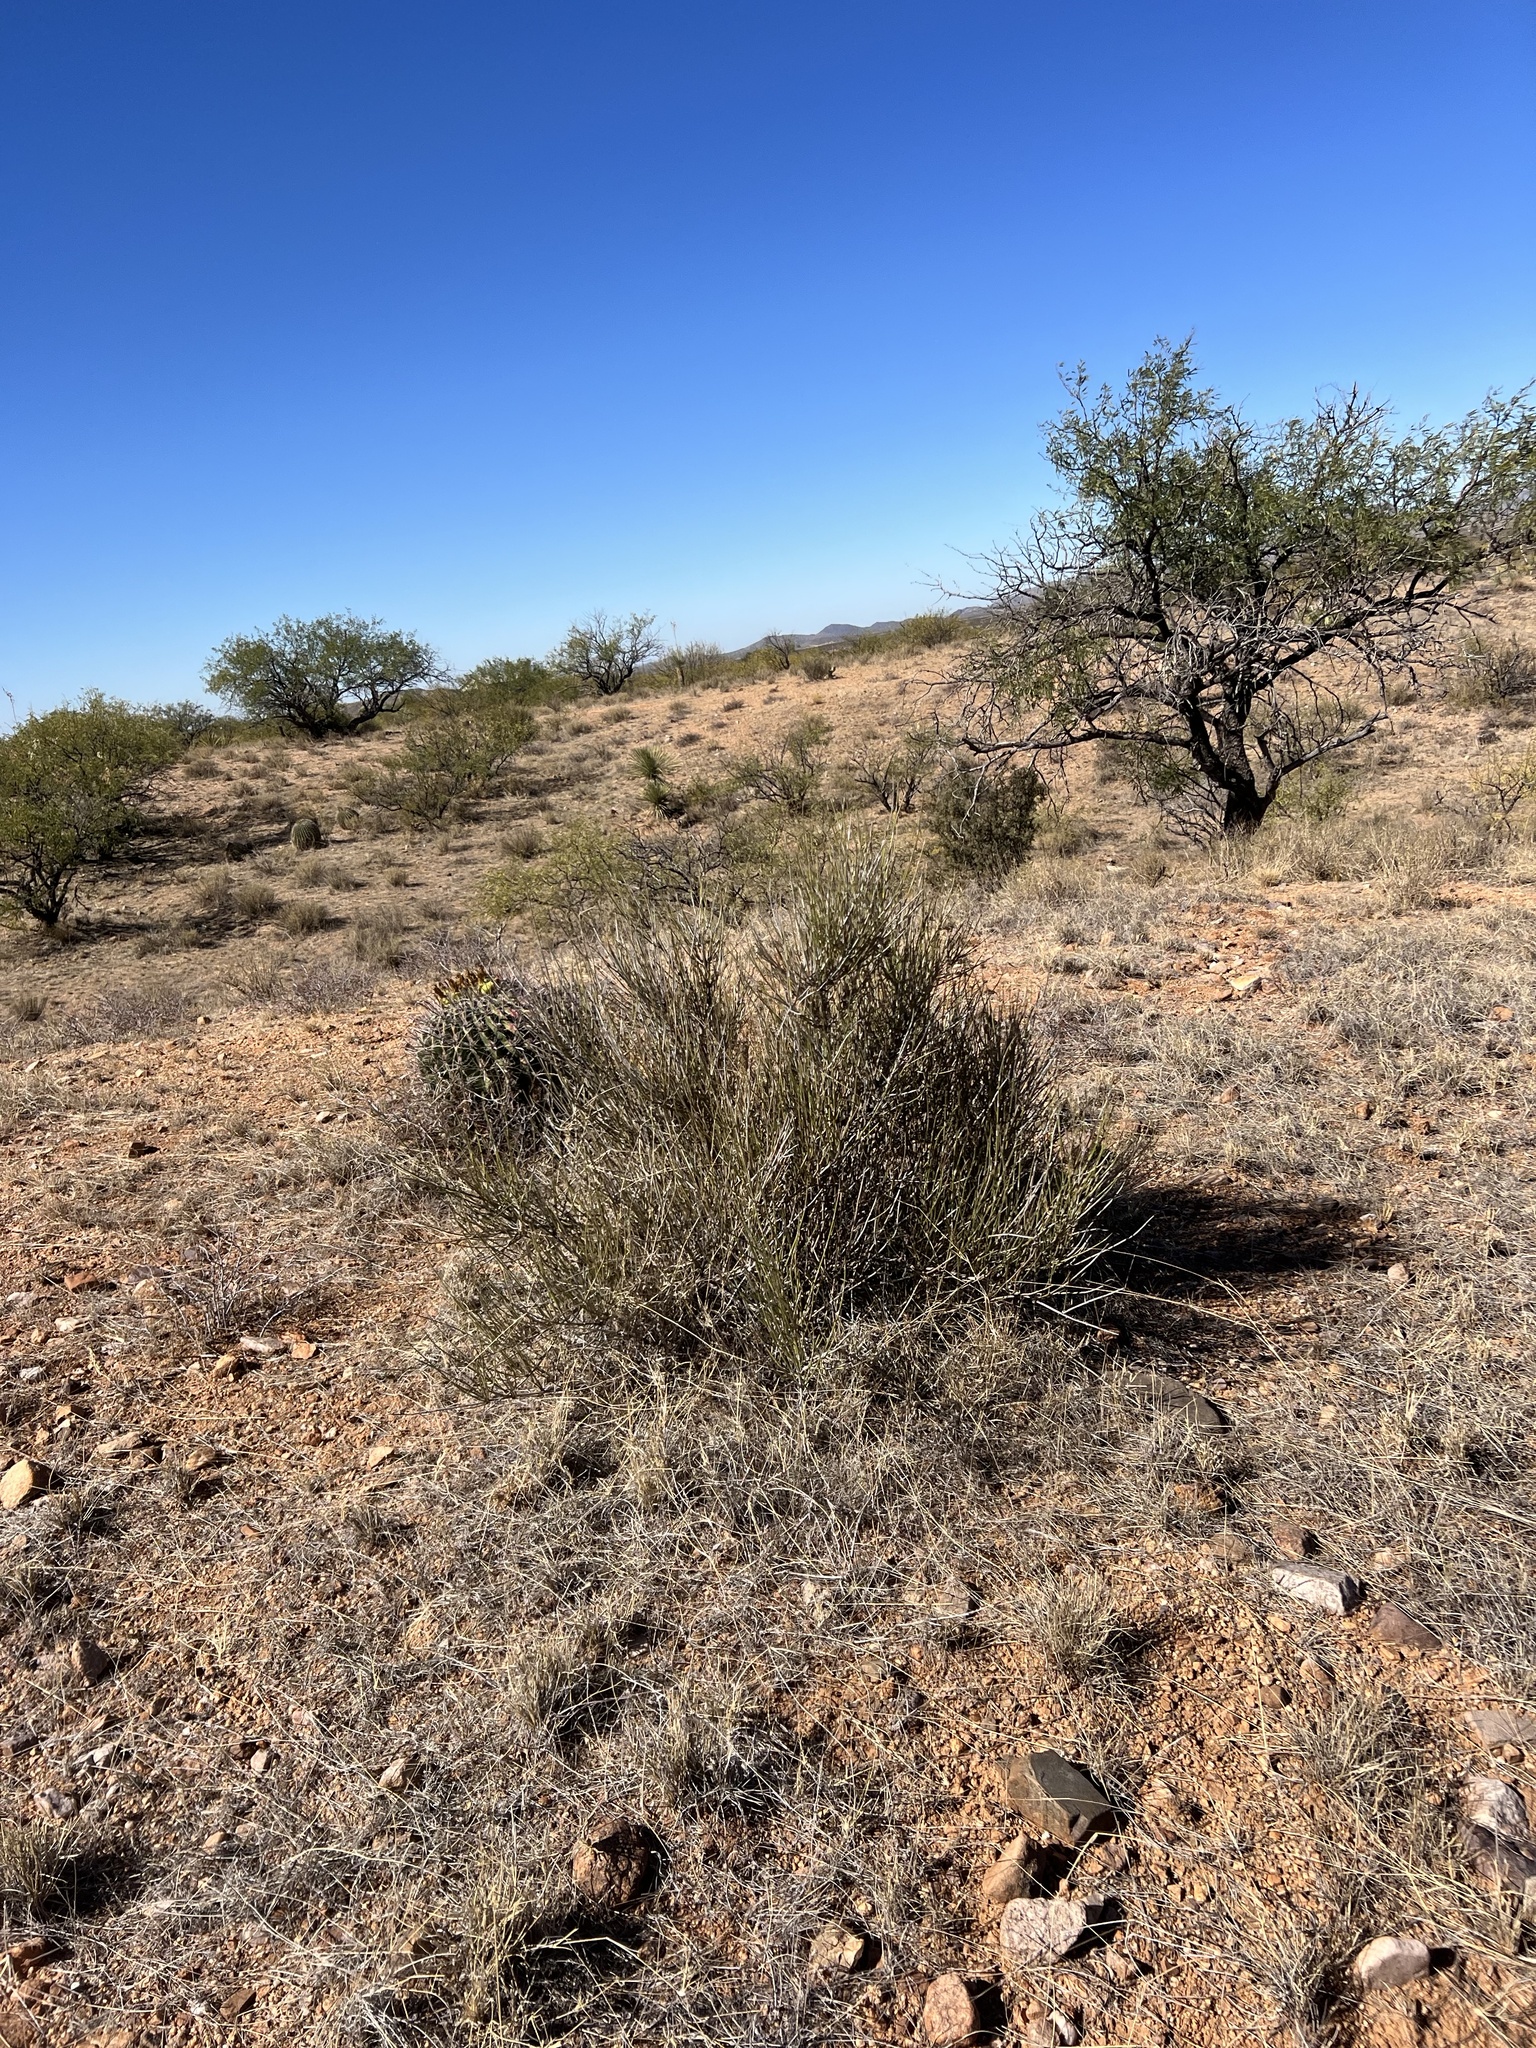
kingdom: Plantae
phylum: Tracheophyta
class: Gnetopsida
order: Ephedrales
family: Ephedraceae
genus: Ephedra
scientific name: Ephedra trifurca
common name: Mexican-tea
